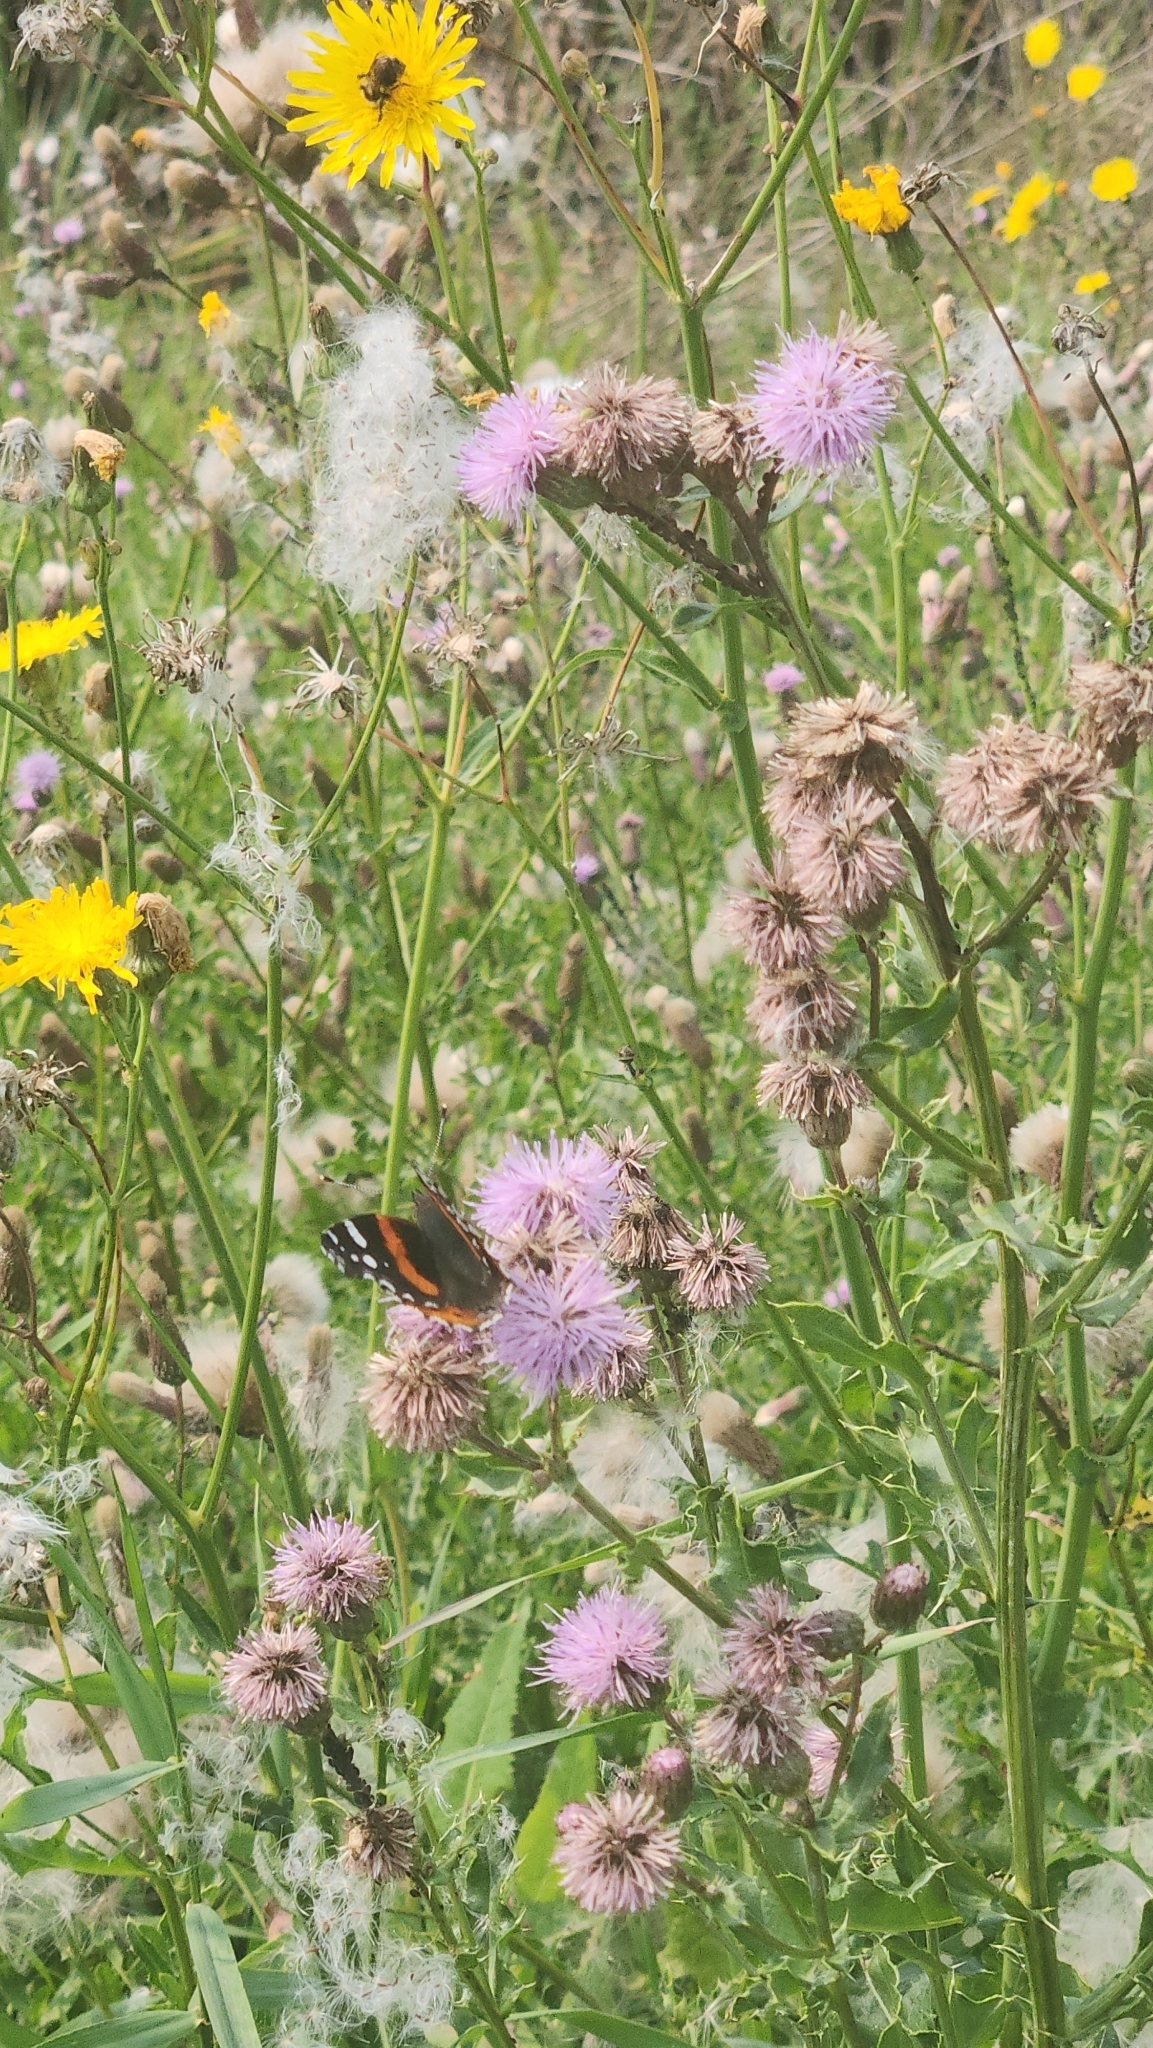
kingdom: Animalia
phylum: Arthropoda
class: Insecta
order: Lepidoptera
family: Nymphalidae
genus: Vanessa
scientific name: Vanessa atalanta
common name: Red admiral
